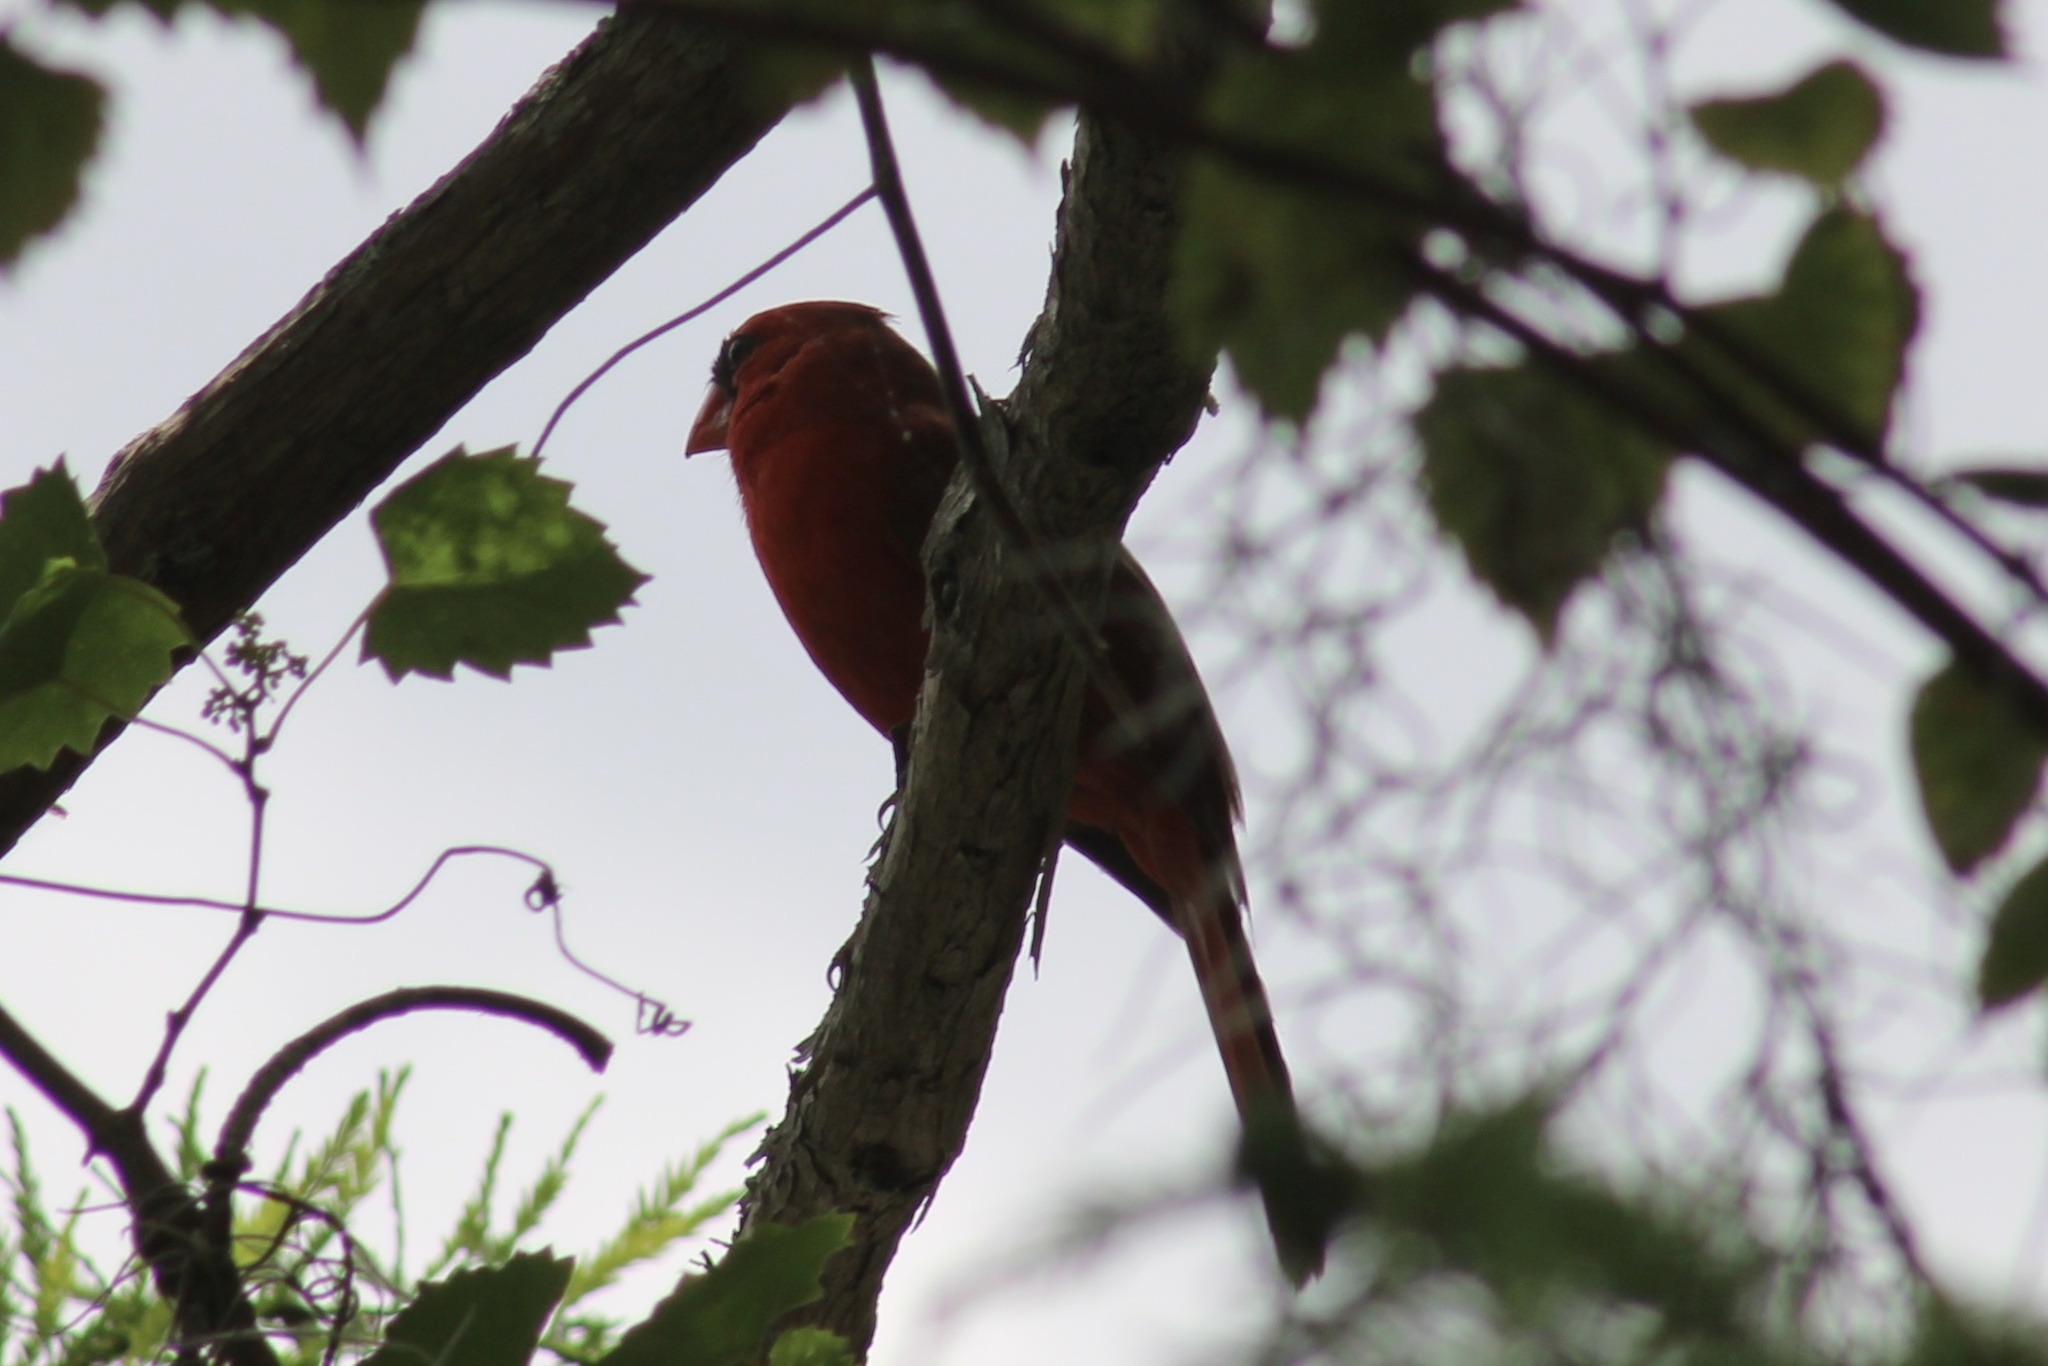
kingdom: Animalia
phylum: Chordata
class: Aves
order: Passeriformes
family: Cardinalidae
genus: Cardinalis
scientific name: Cardinalis cardinalis
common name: Northern cardinal
